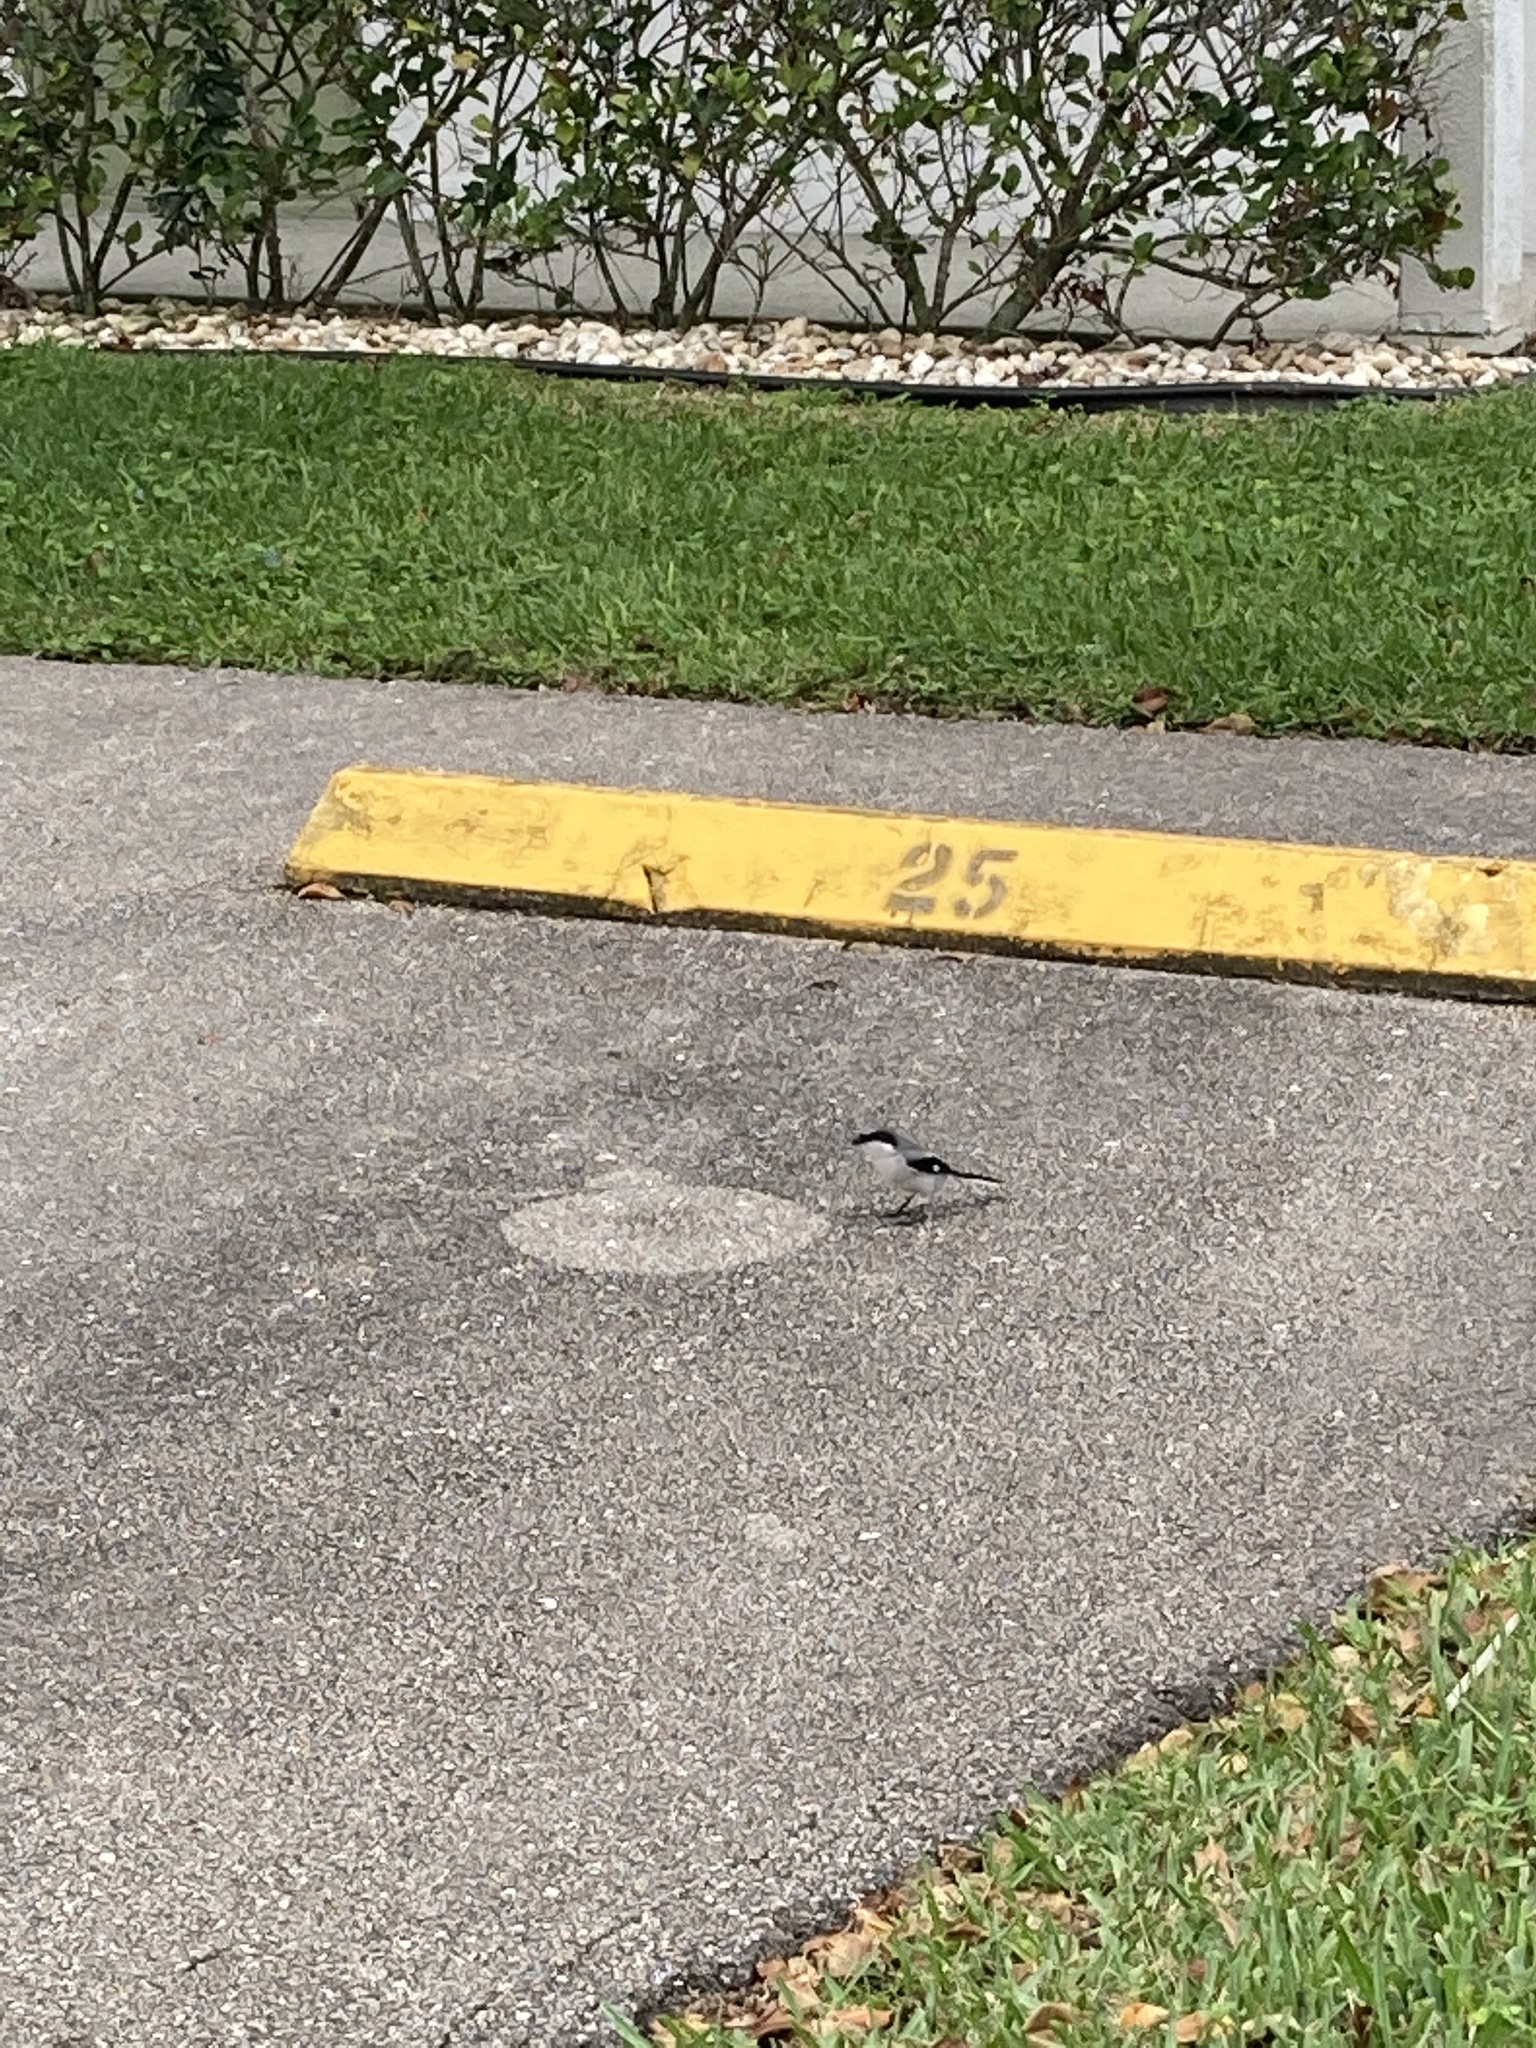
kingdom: Animalia
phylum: Chordata
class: Aves
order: Passeriformes
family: Laniidae
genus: Lanius
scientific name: Lanius ludovicianus
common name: Loggerhead shrike
